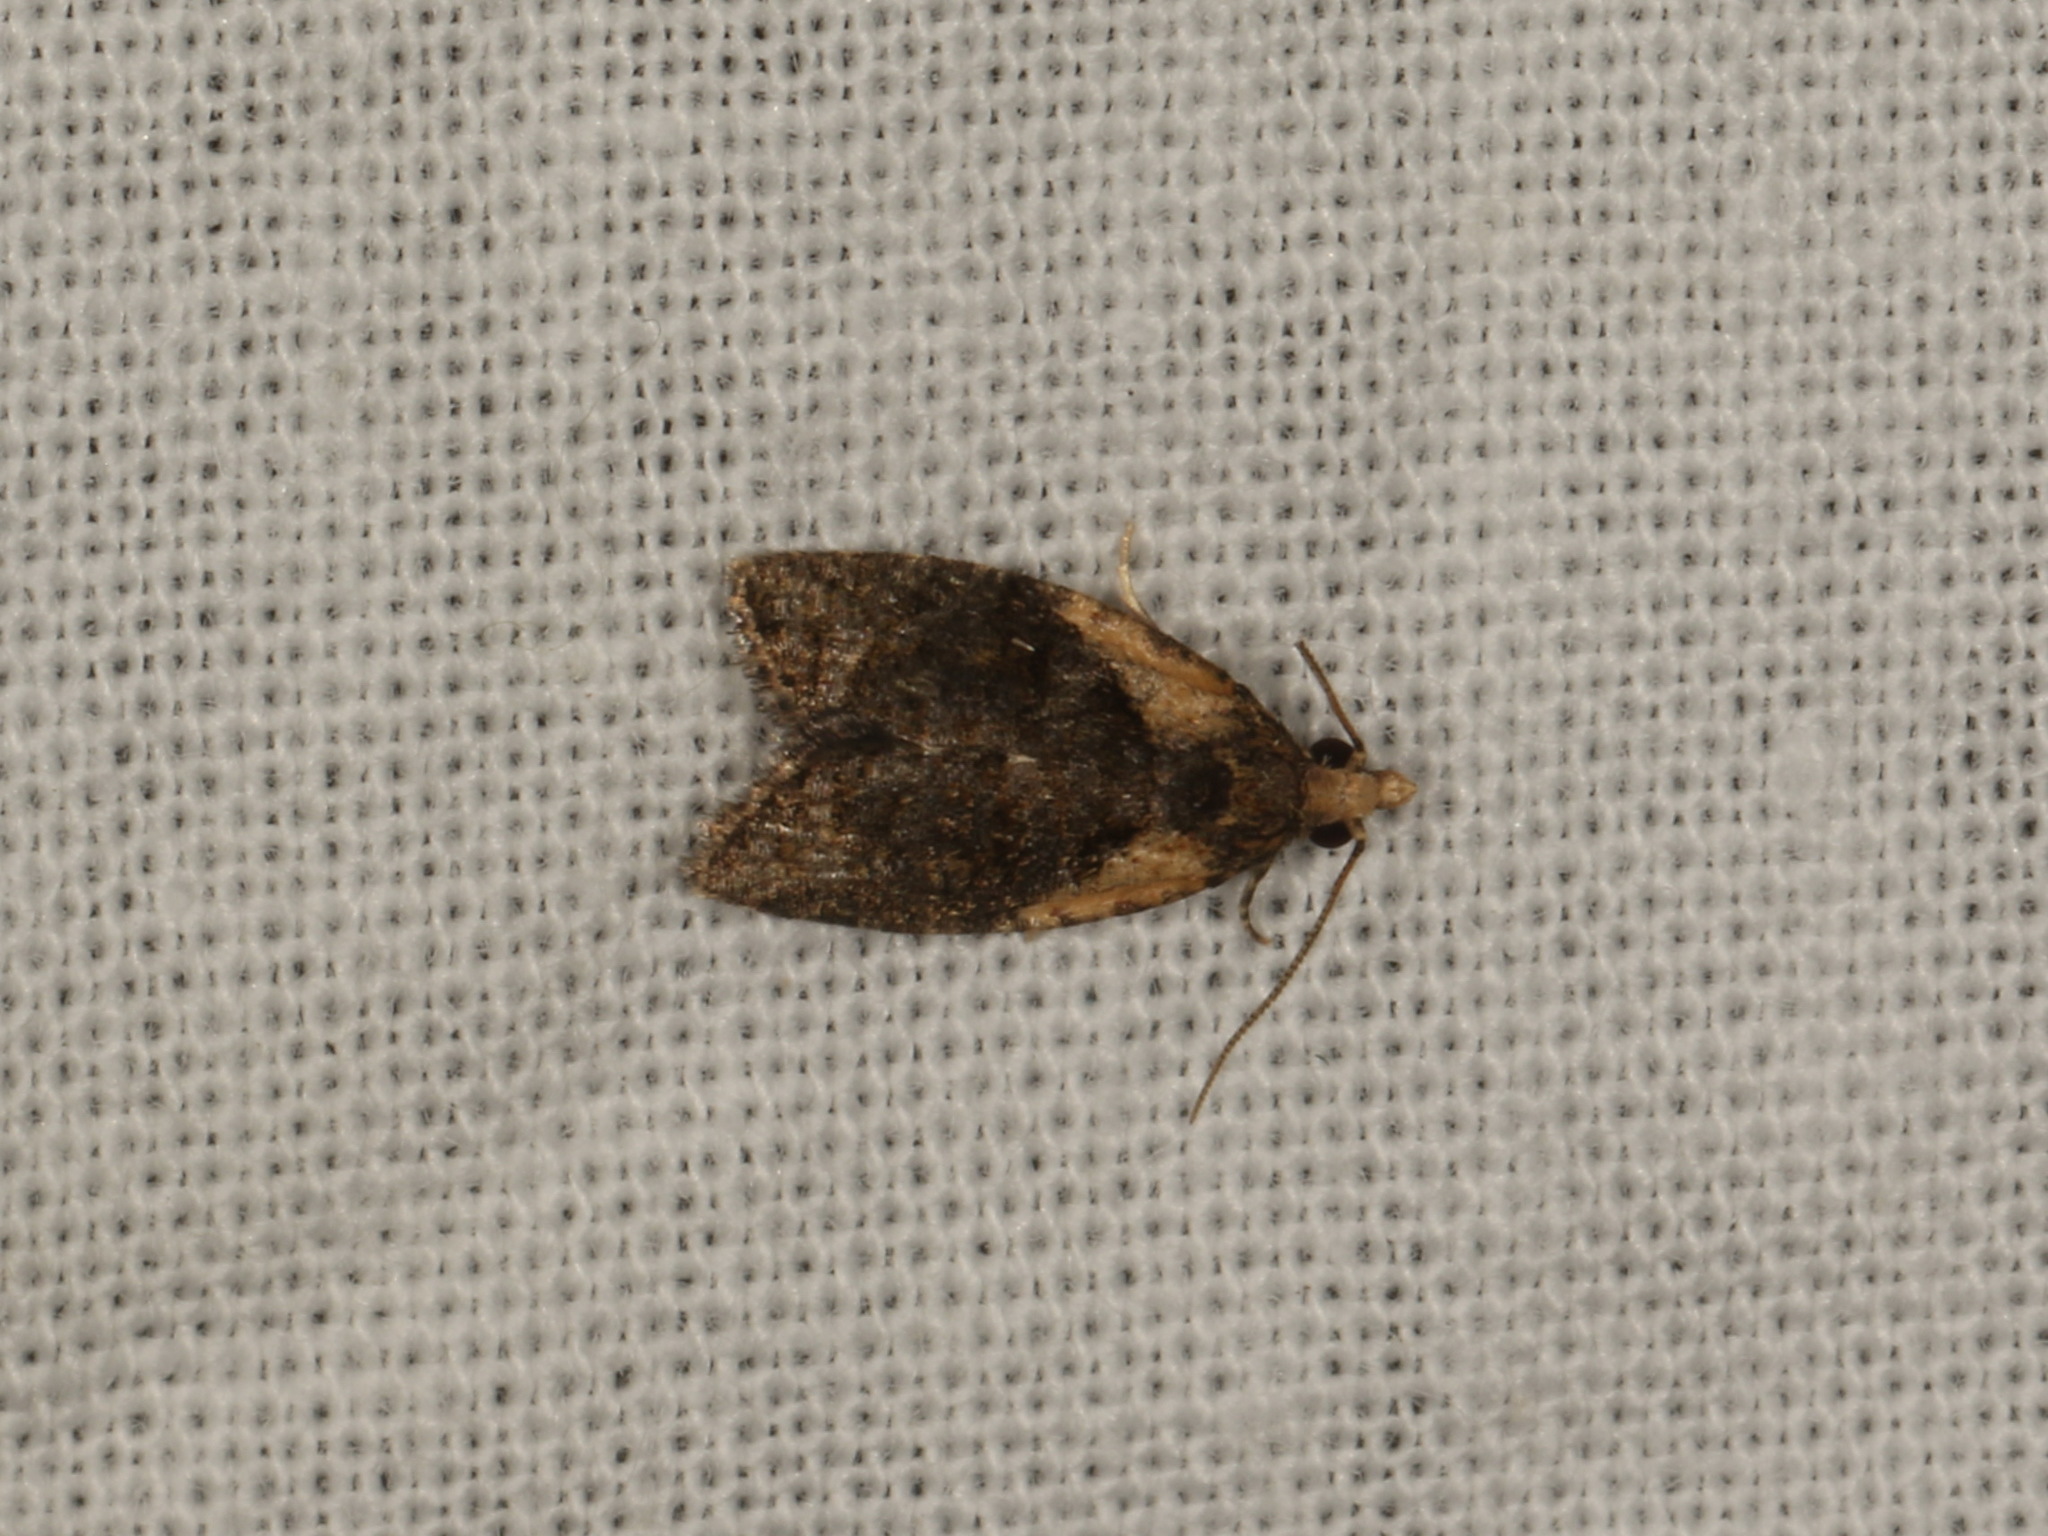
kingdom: Animalia
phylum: Arthropoda
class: Insecta
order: Lepidoptera
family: Tortricidae
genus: Capua
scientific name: Capua intractana
